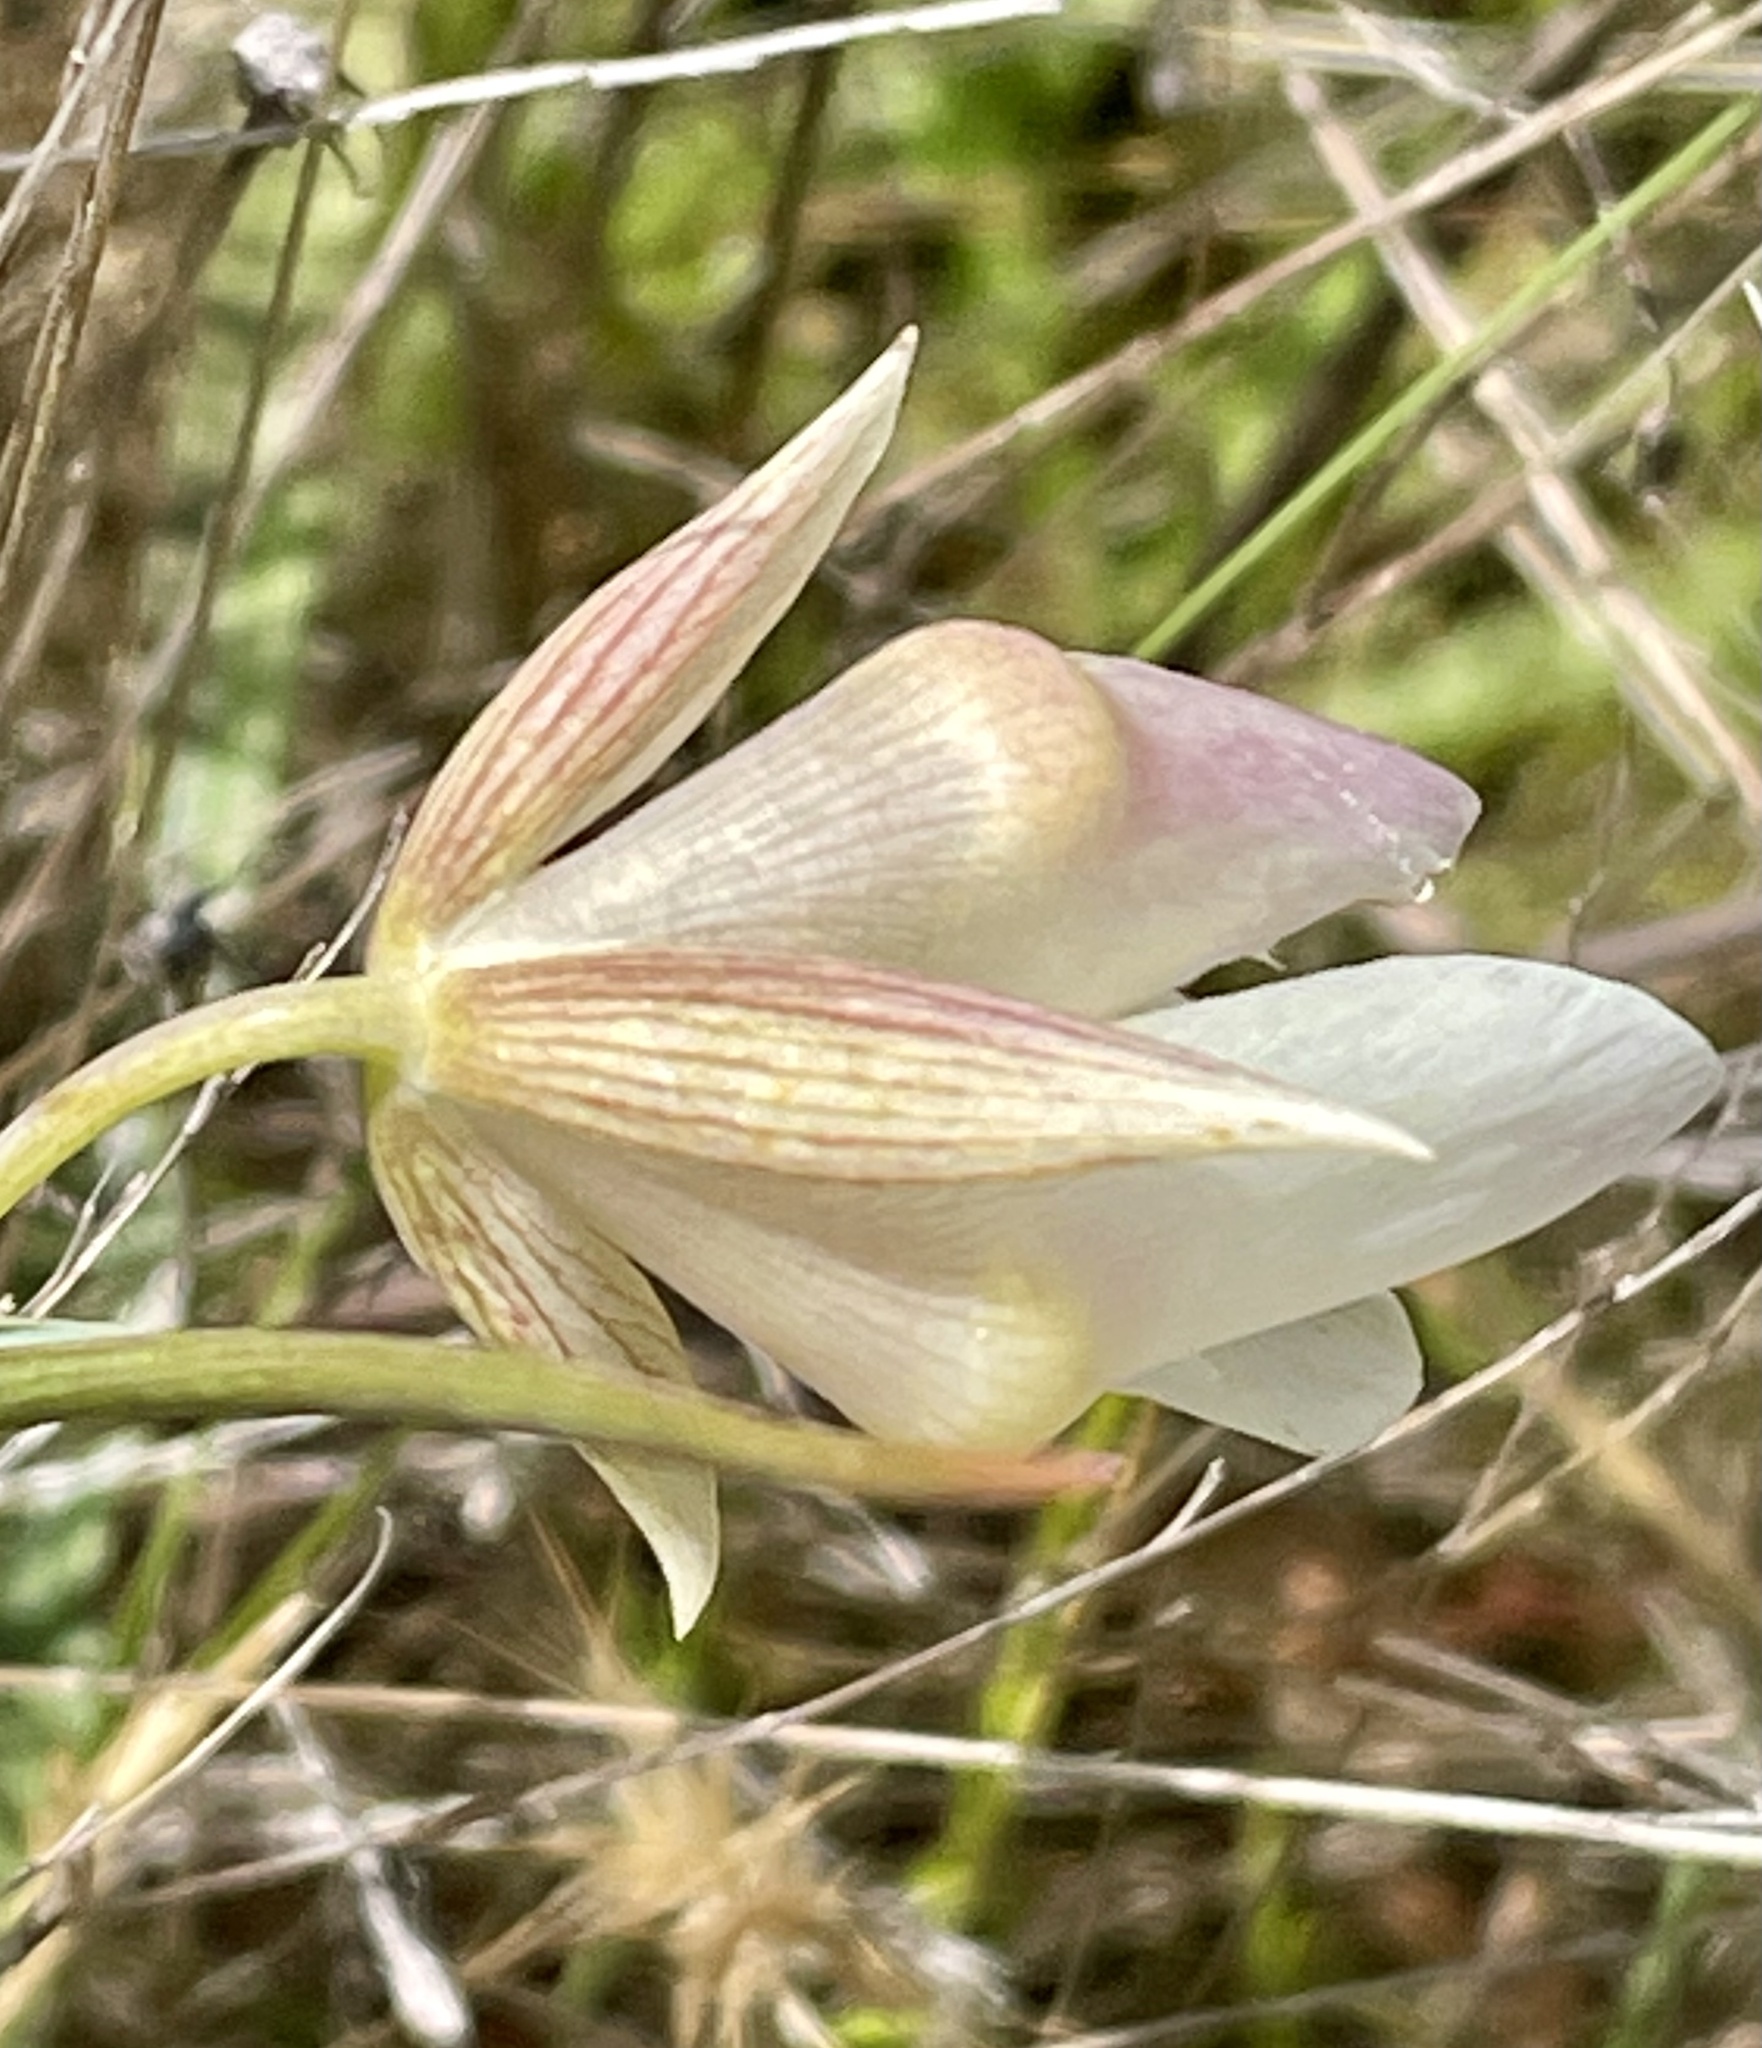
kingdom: Plantae
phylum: Tracheophyta
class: Liliopsida
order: Liliales
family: Liliaceae
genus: Calochortus
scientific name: Calochortus albus
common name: Fairy-lantern
